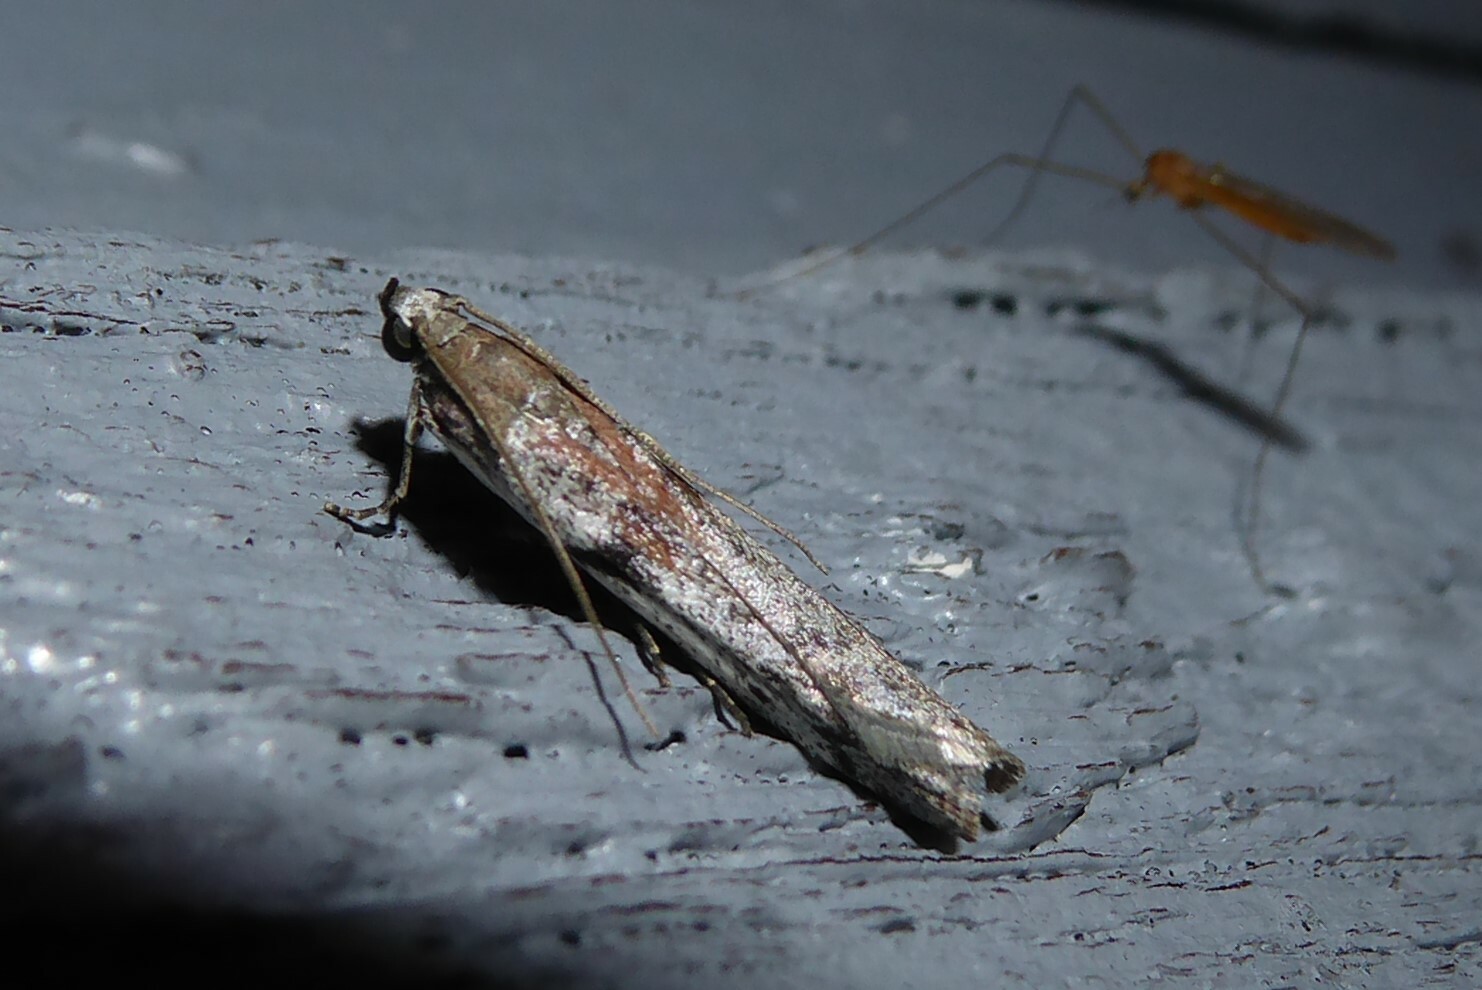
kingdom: Animalia
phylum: Arthropoda
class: Insecta
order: Lepidoptera
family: Pyralidae
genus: Patagoniodes
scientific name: Patagoniodes farinaria
